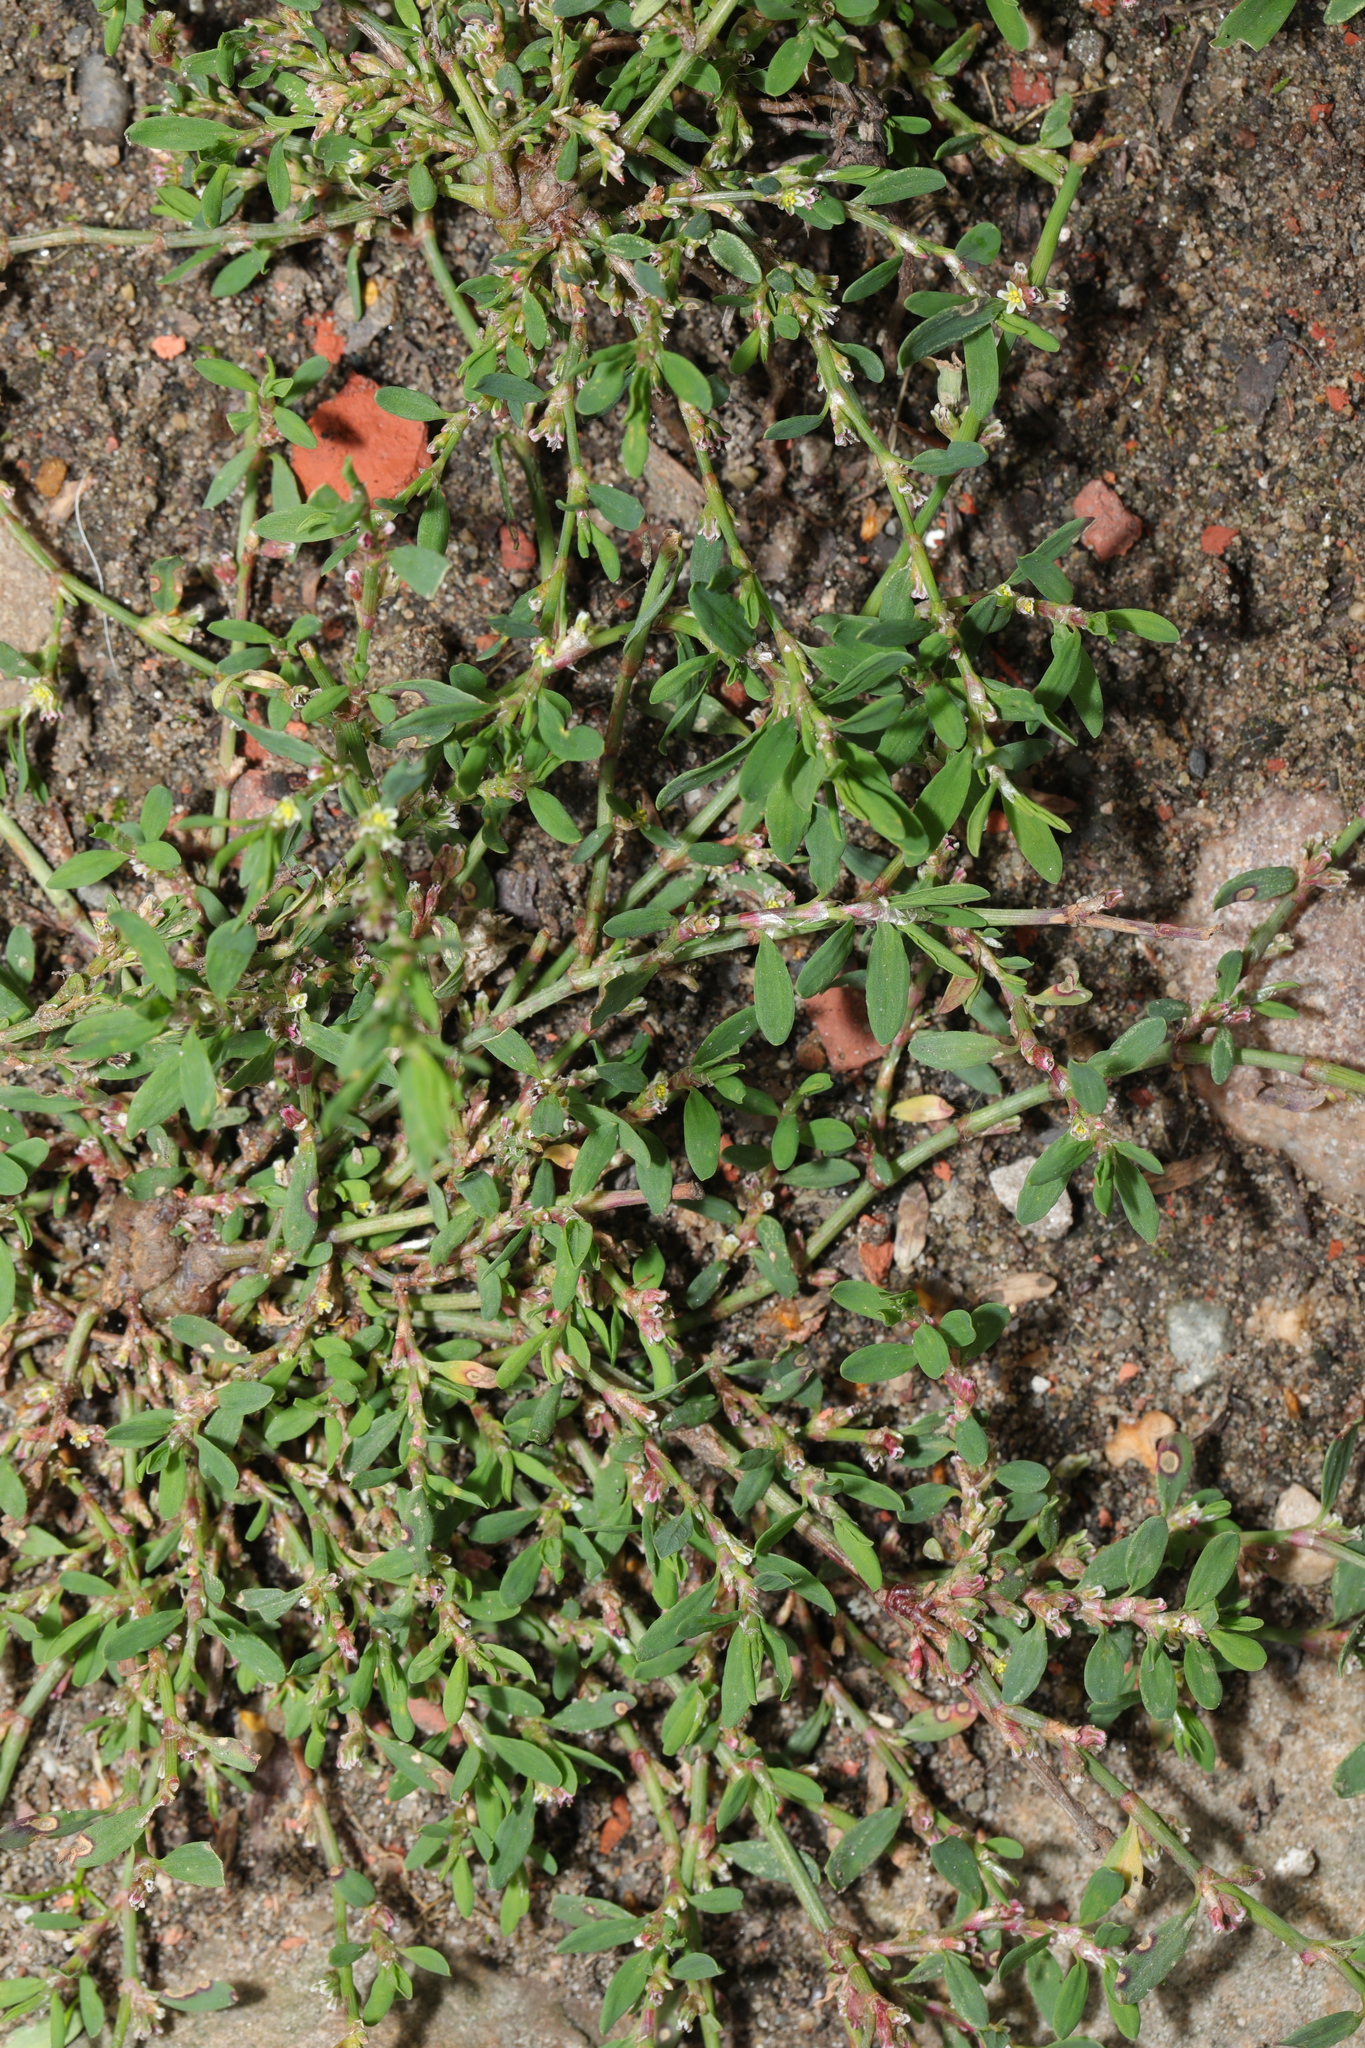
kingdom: Plantae
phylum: Tracheophyta
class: Magnoliopsida
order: Caryophyllales
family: Polygonaceae
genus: Polygonum
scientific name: Polygonum aviculare
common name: Prostrate knotweed
